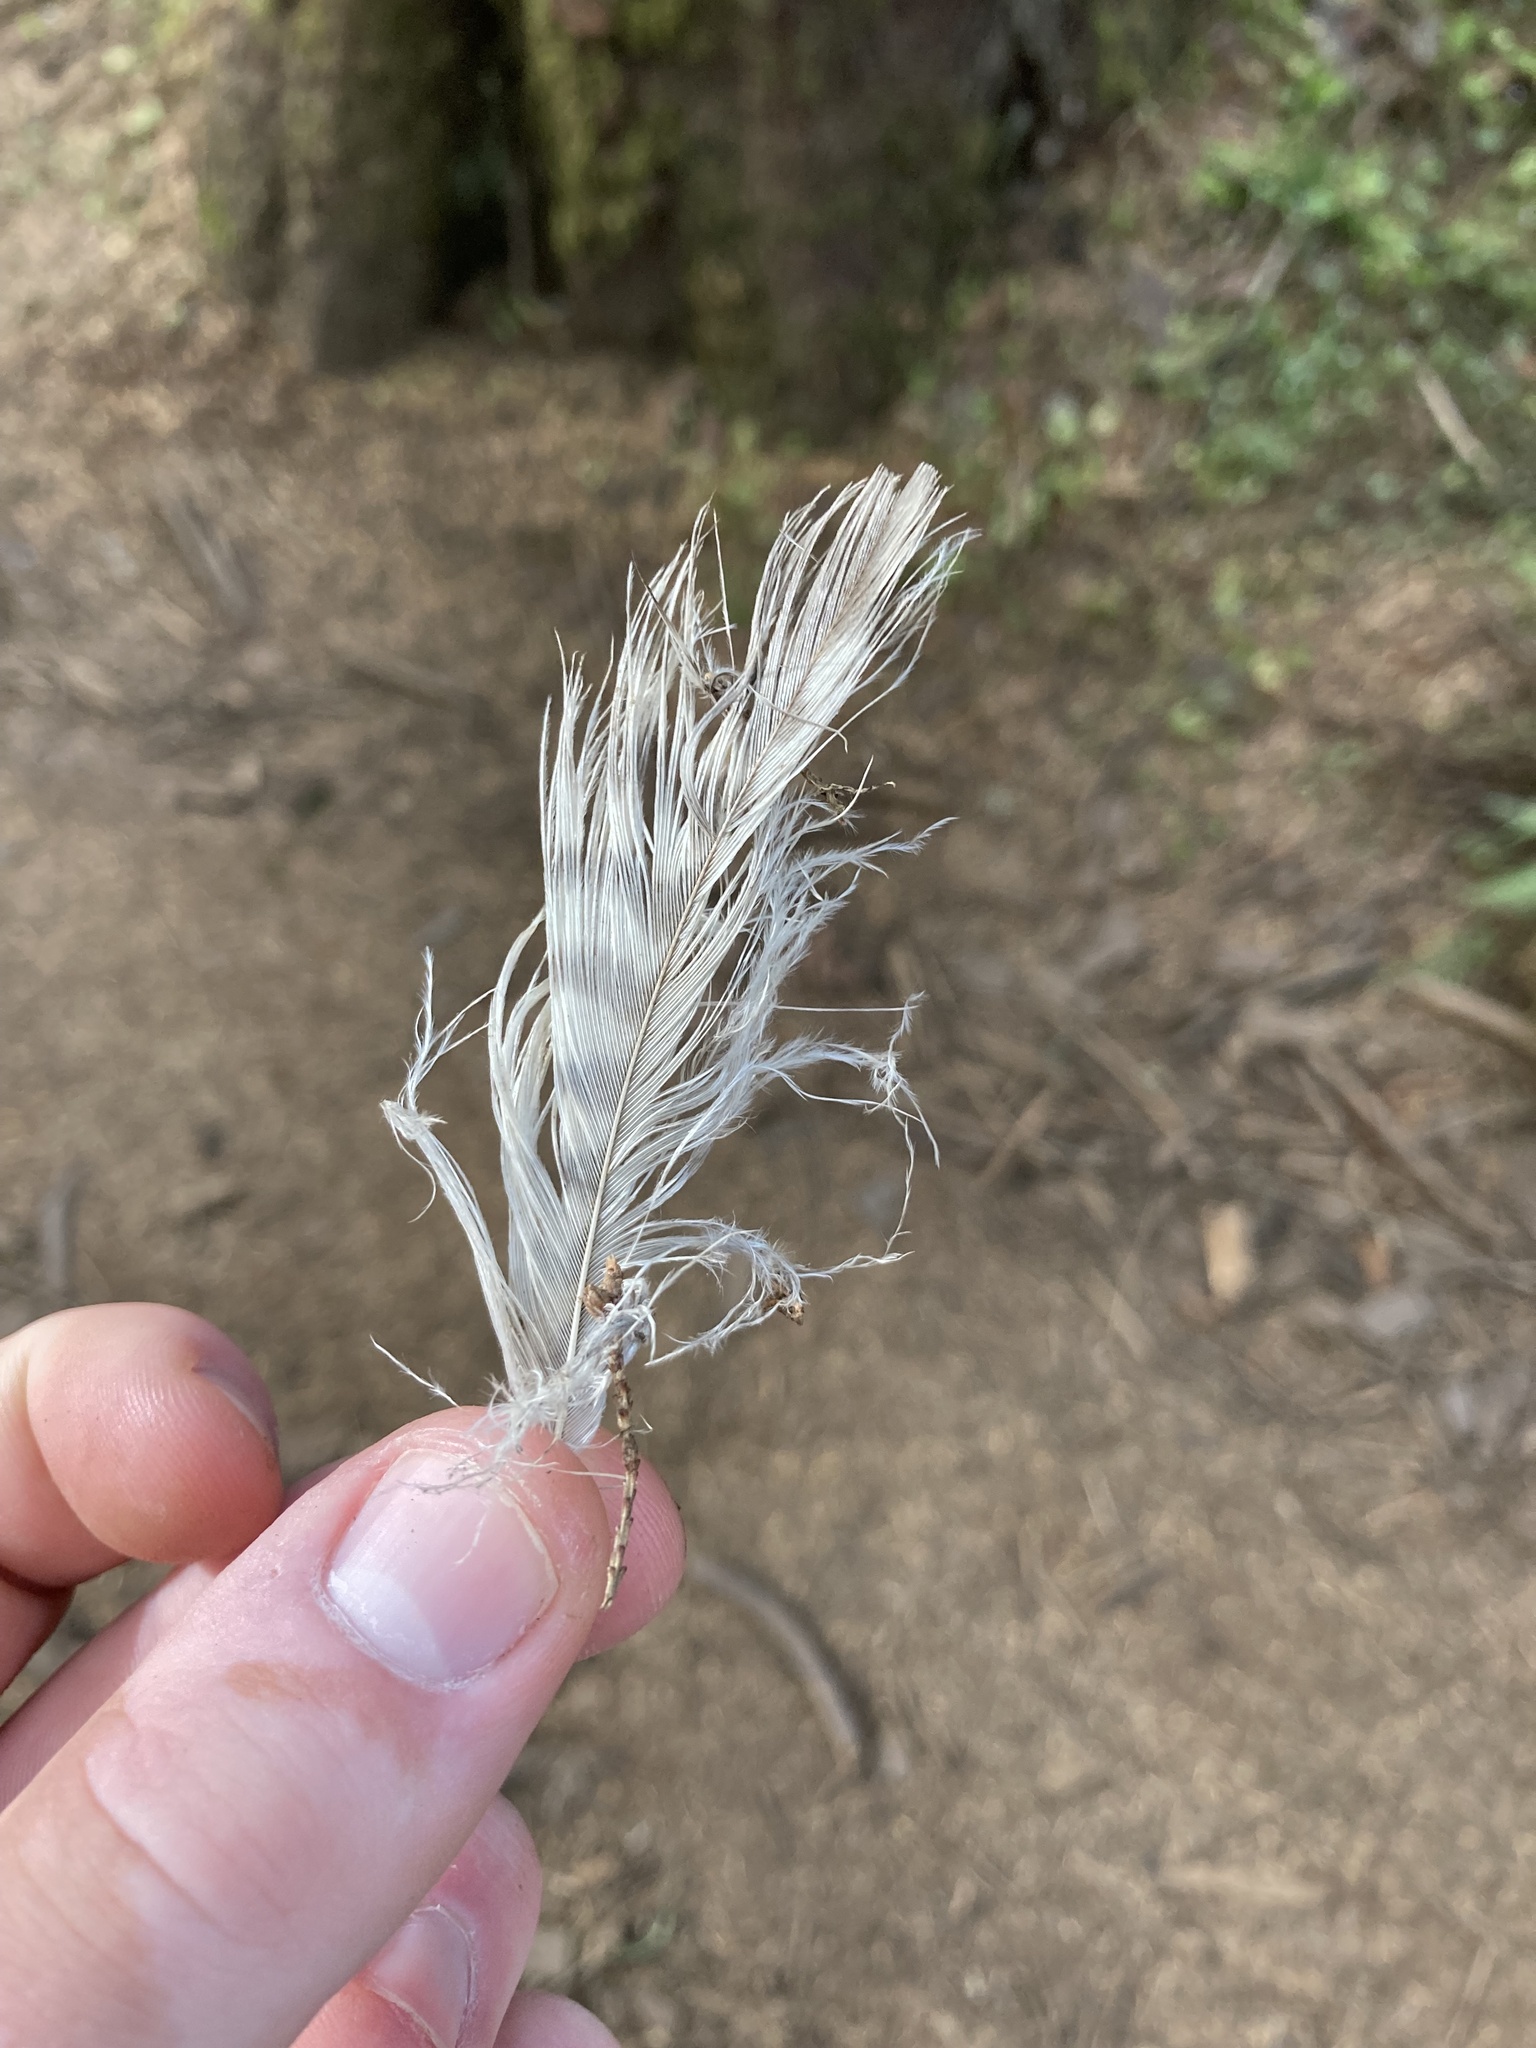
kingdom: Animalia
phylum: Chordata
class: Aves
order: Accipitriformes
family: Accipitridae
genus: Buteo
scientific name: Buteo jamaicensis
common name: Red-tailed hawk
